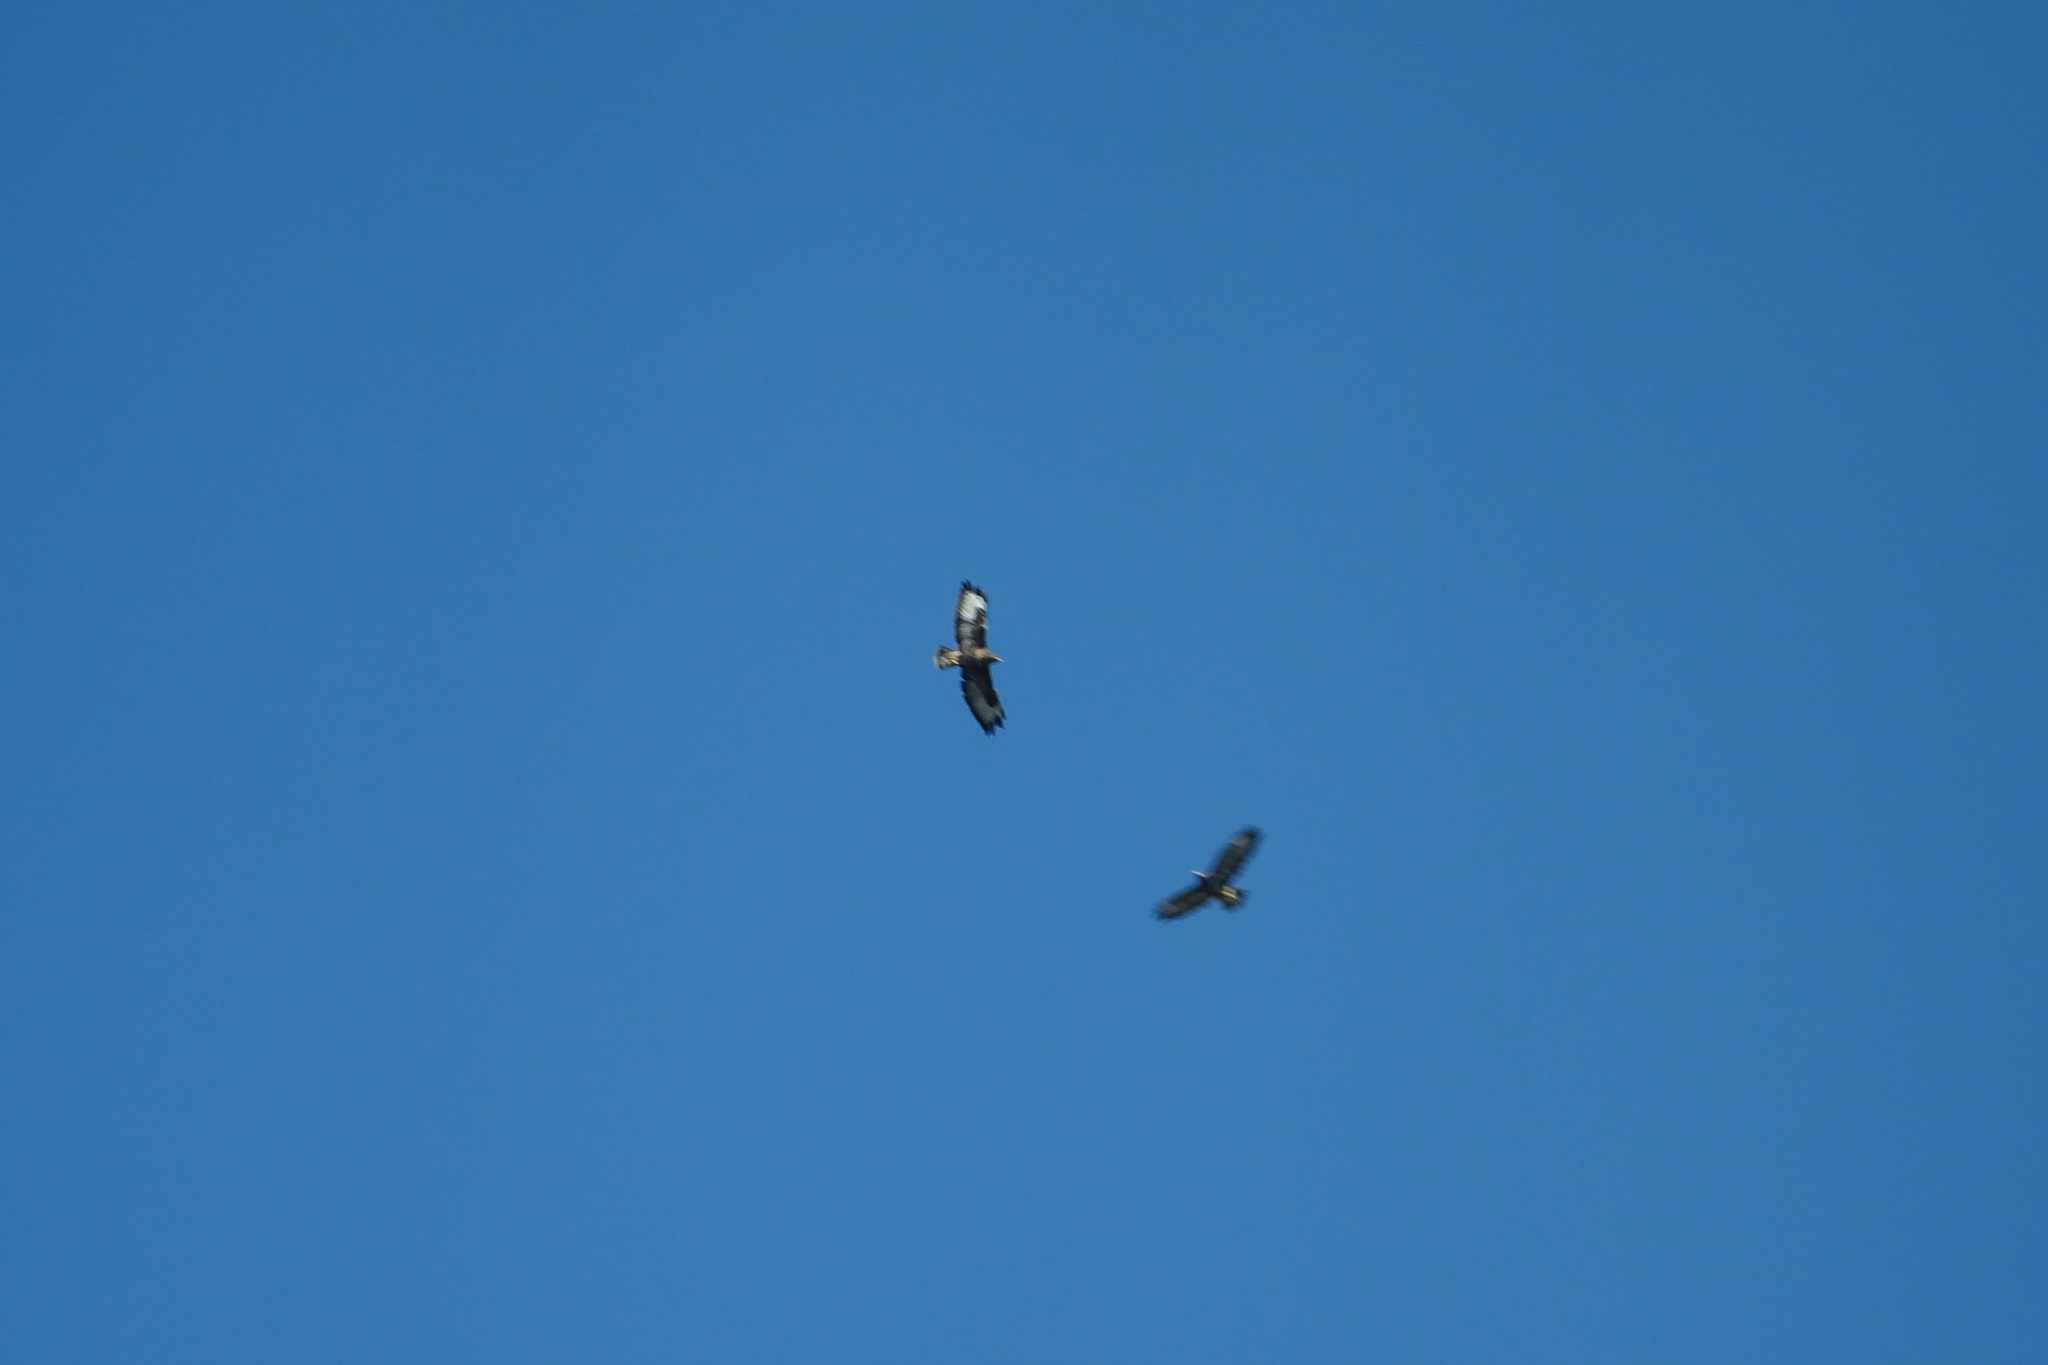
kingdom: Animalia
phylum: Chordata
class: Aves
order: Accipitriformes
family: Accipitridae
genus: Buteo
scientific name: Buteo buteo
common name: Common buzzard
